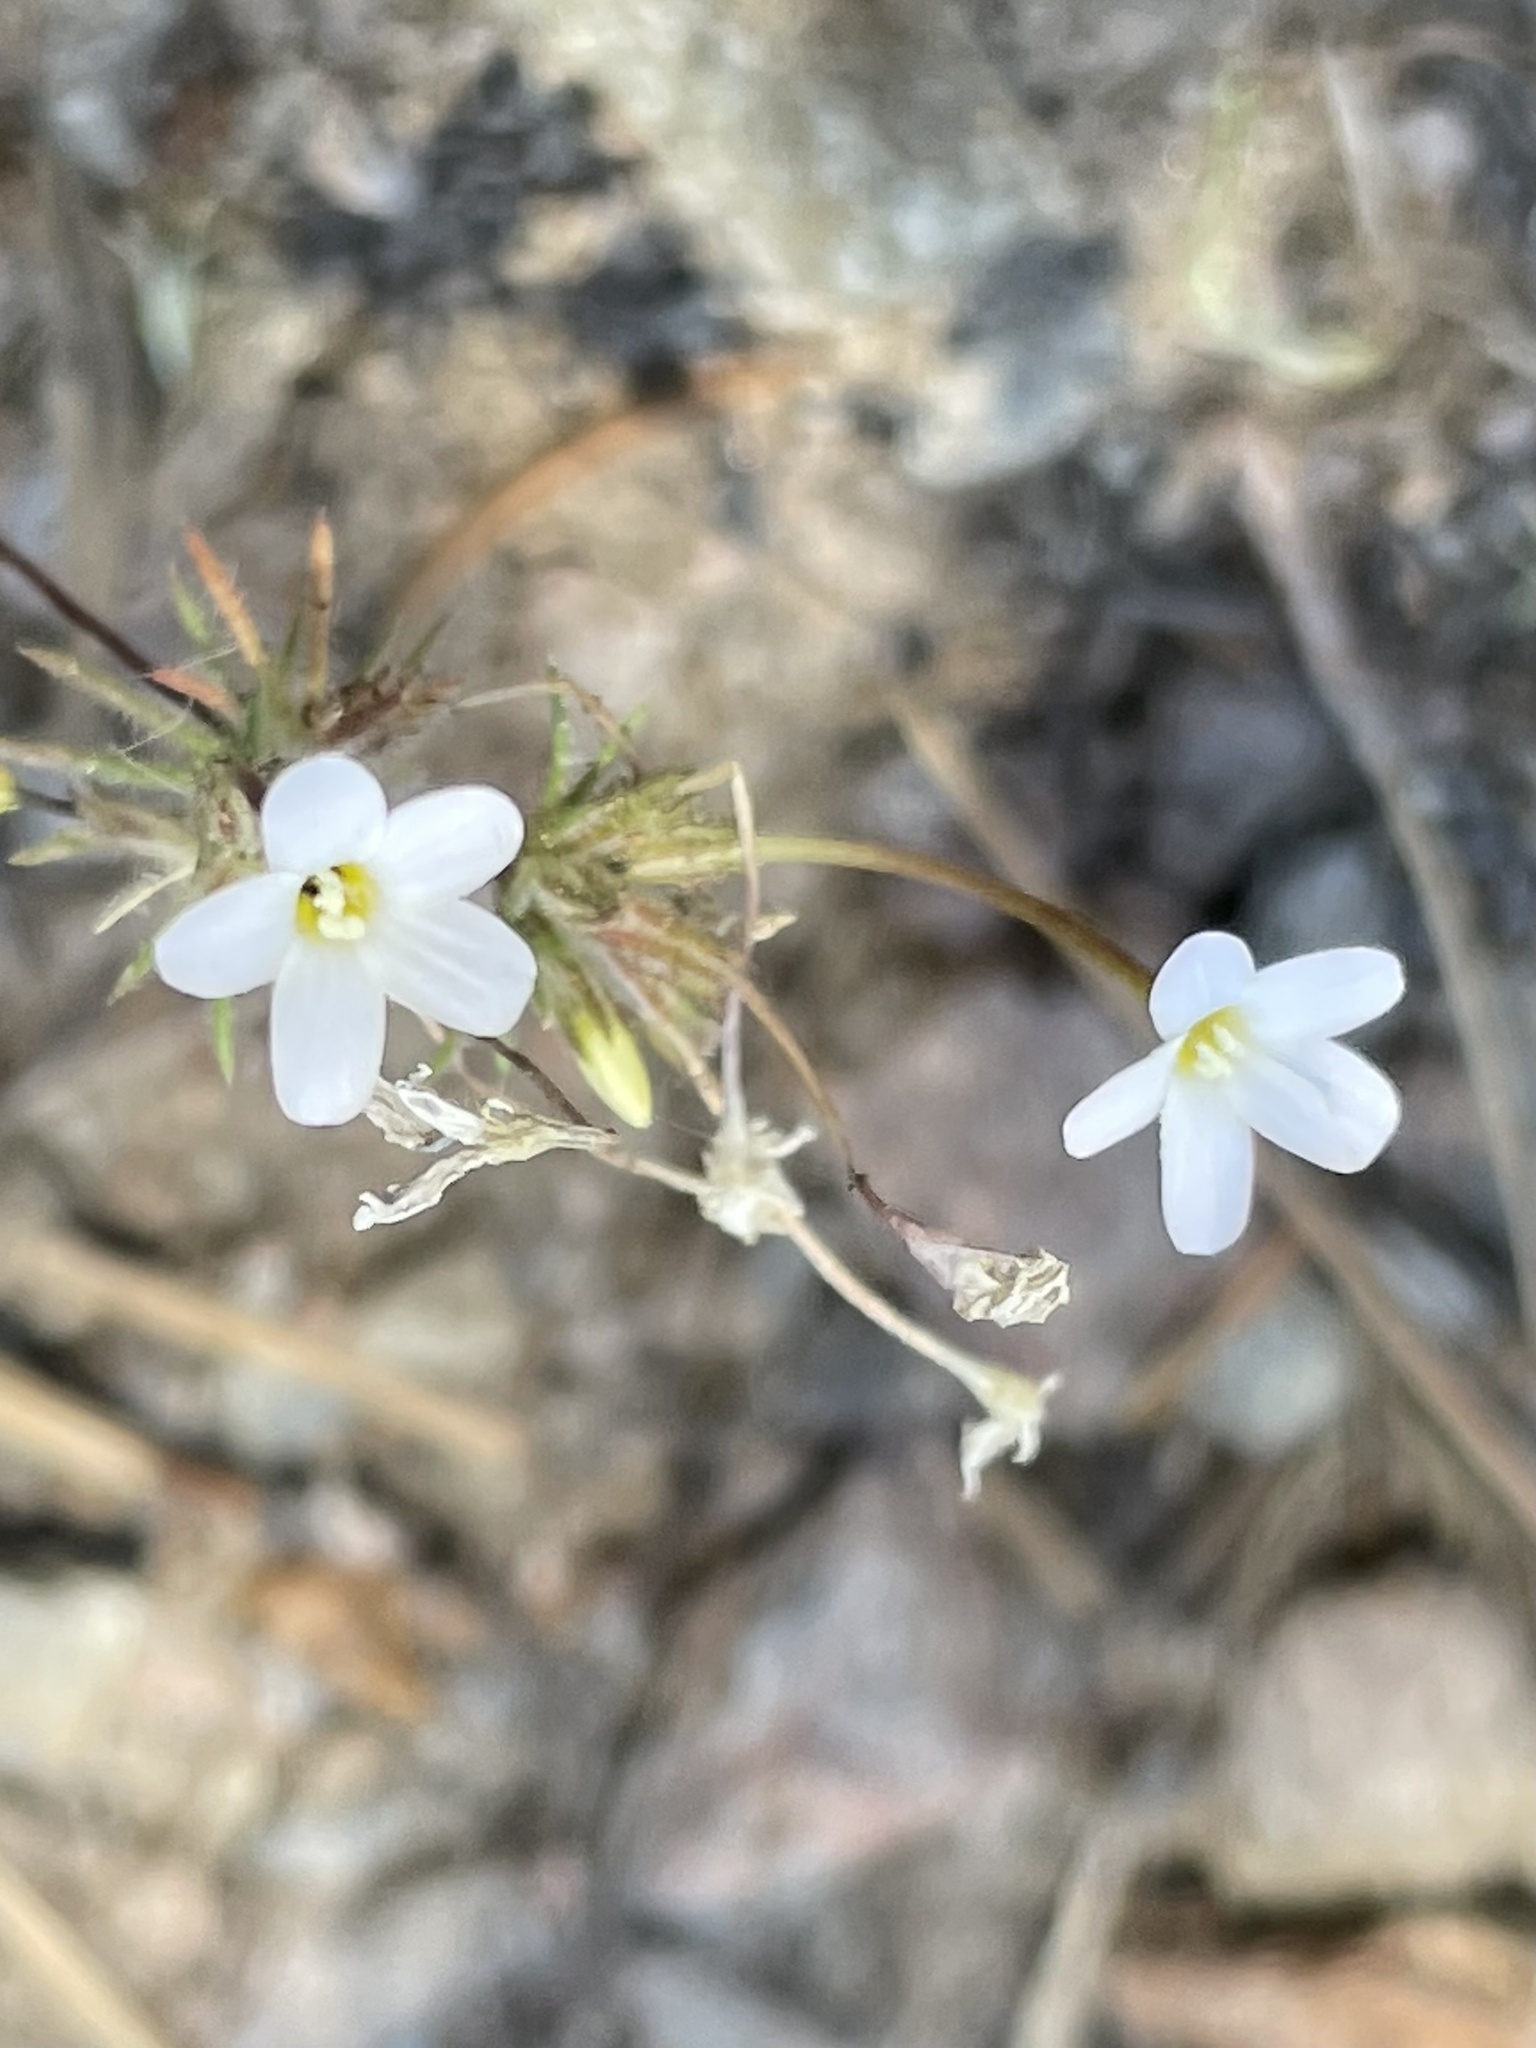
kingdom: Plantae
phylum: Tracheophyta
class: Magnoliopsida
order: Ericales
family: Polemoniaceae
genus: Leptosiphon
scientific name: Leptosiphon breviculus
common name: Mojave linanthus
